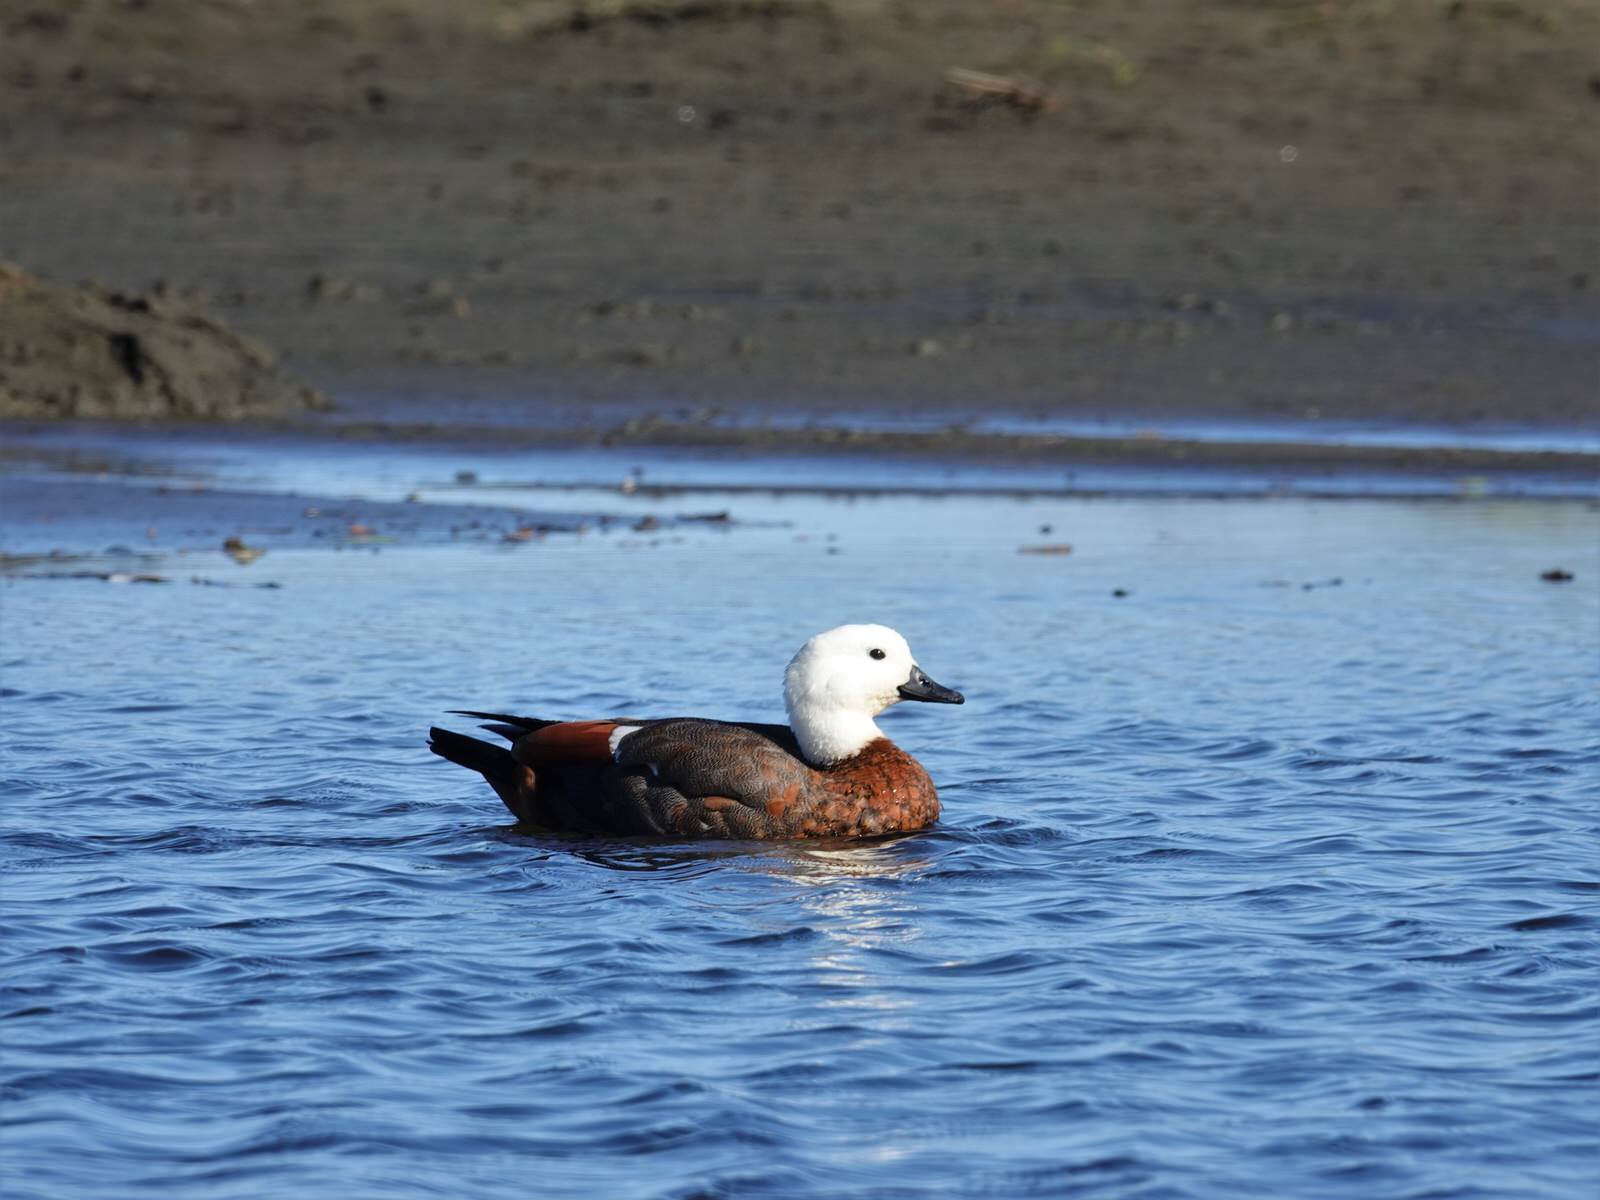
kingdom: Animalia
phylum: Chordata
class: Aves
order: Anseriformes
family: Anatidae
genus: Tadorna
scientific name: Tadorna variegata
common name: Paradise shelduck
